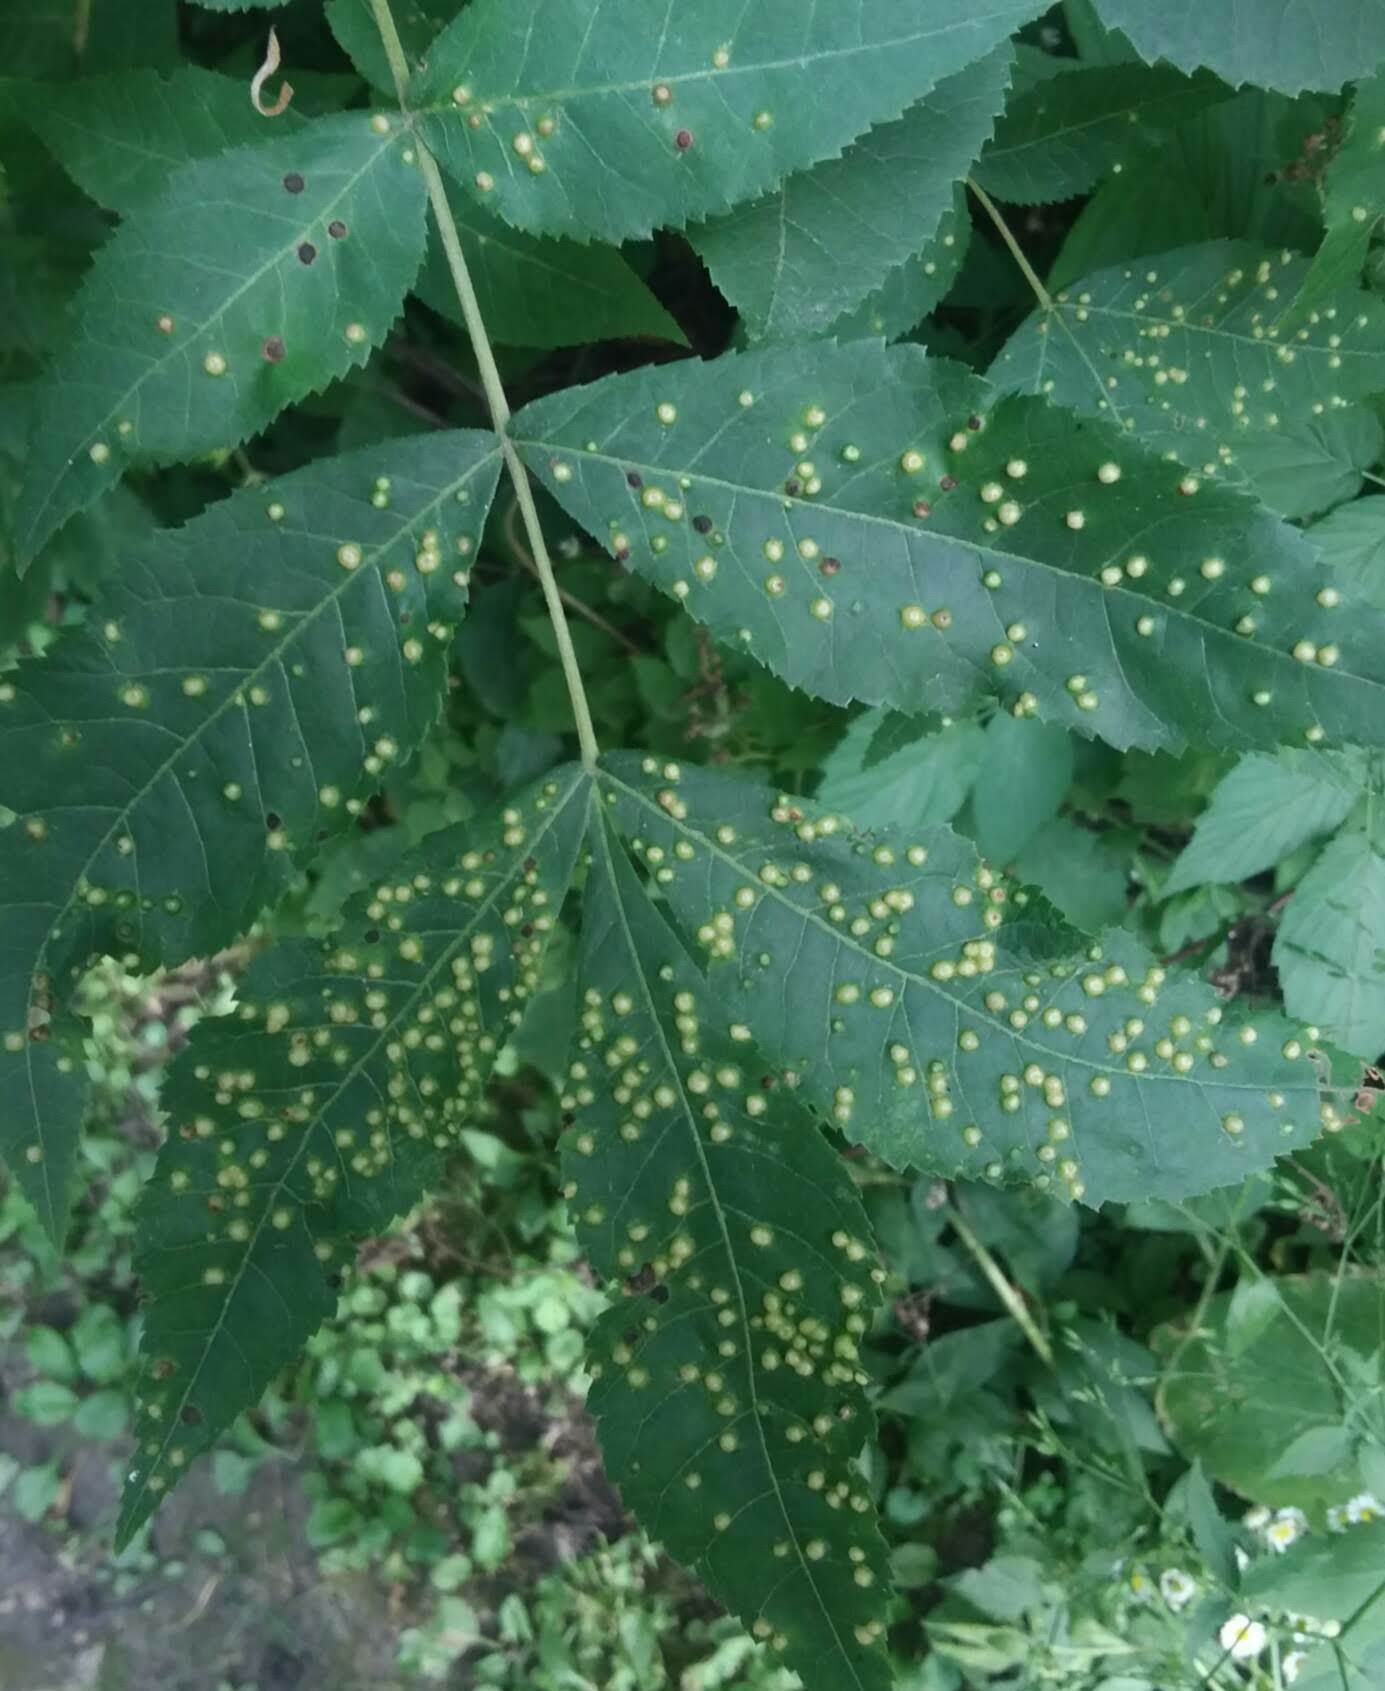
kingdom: Animalia
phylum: Arthropoda
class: Insecta
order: Hemiptera
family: Phylloxeridae
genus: Phylloxera
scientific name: Phylloxera caryae-semen
